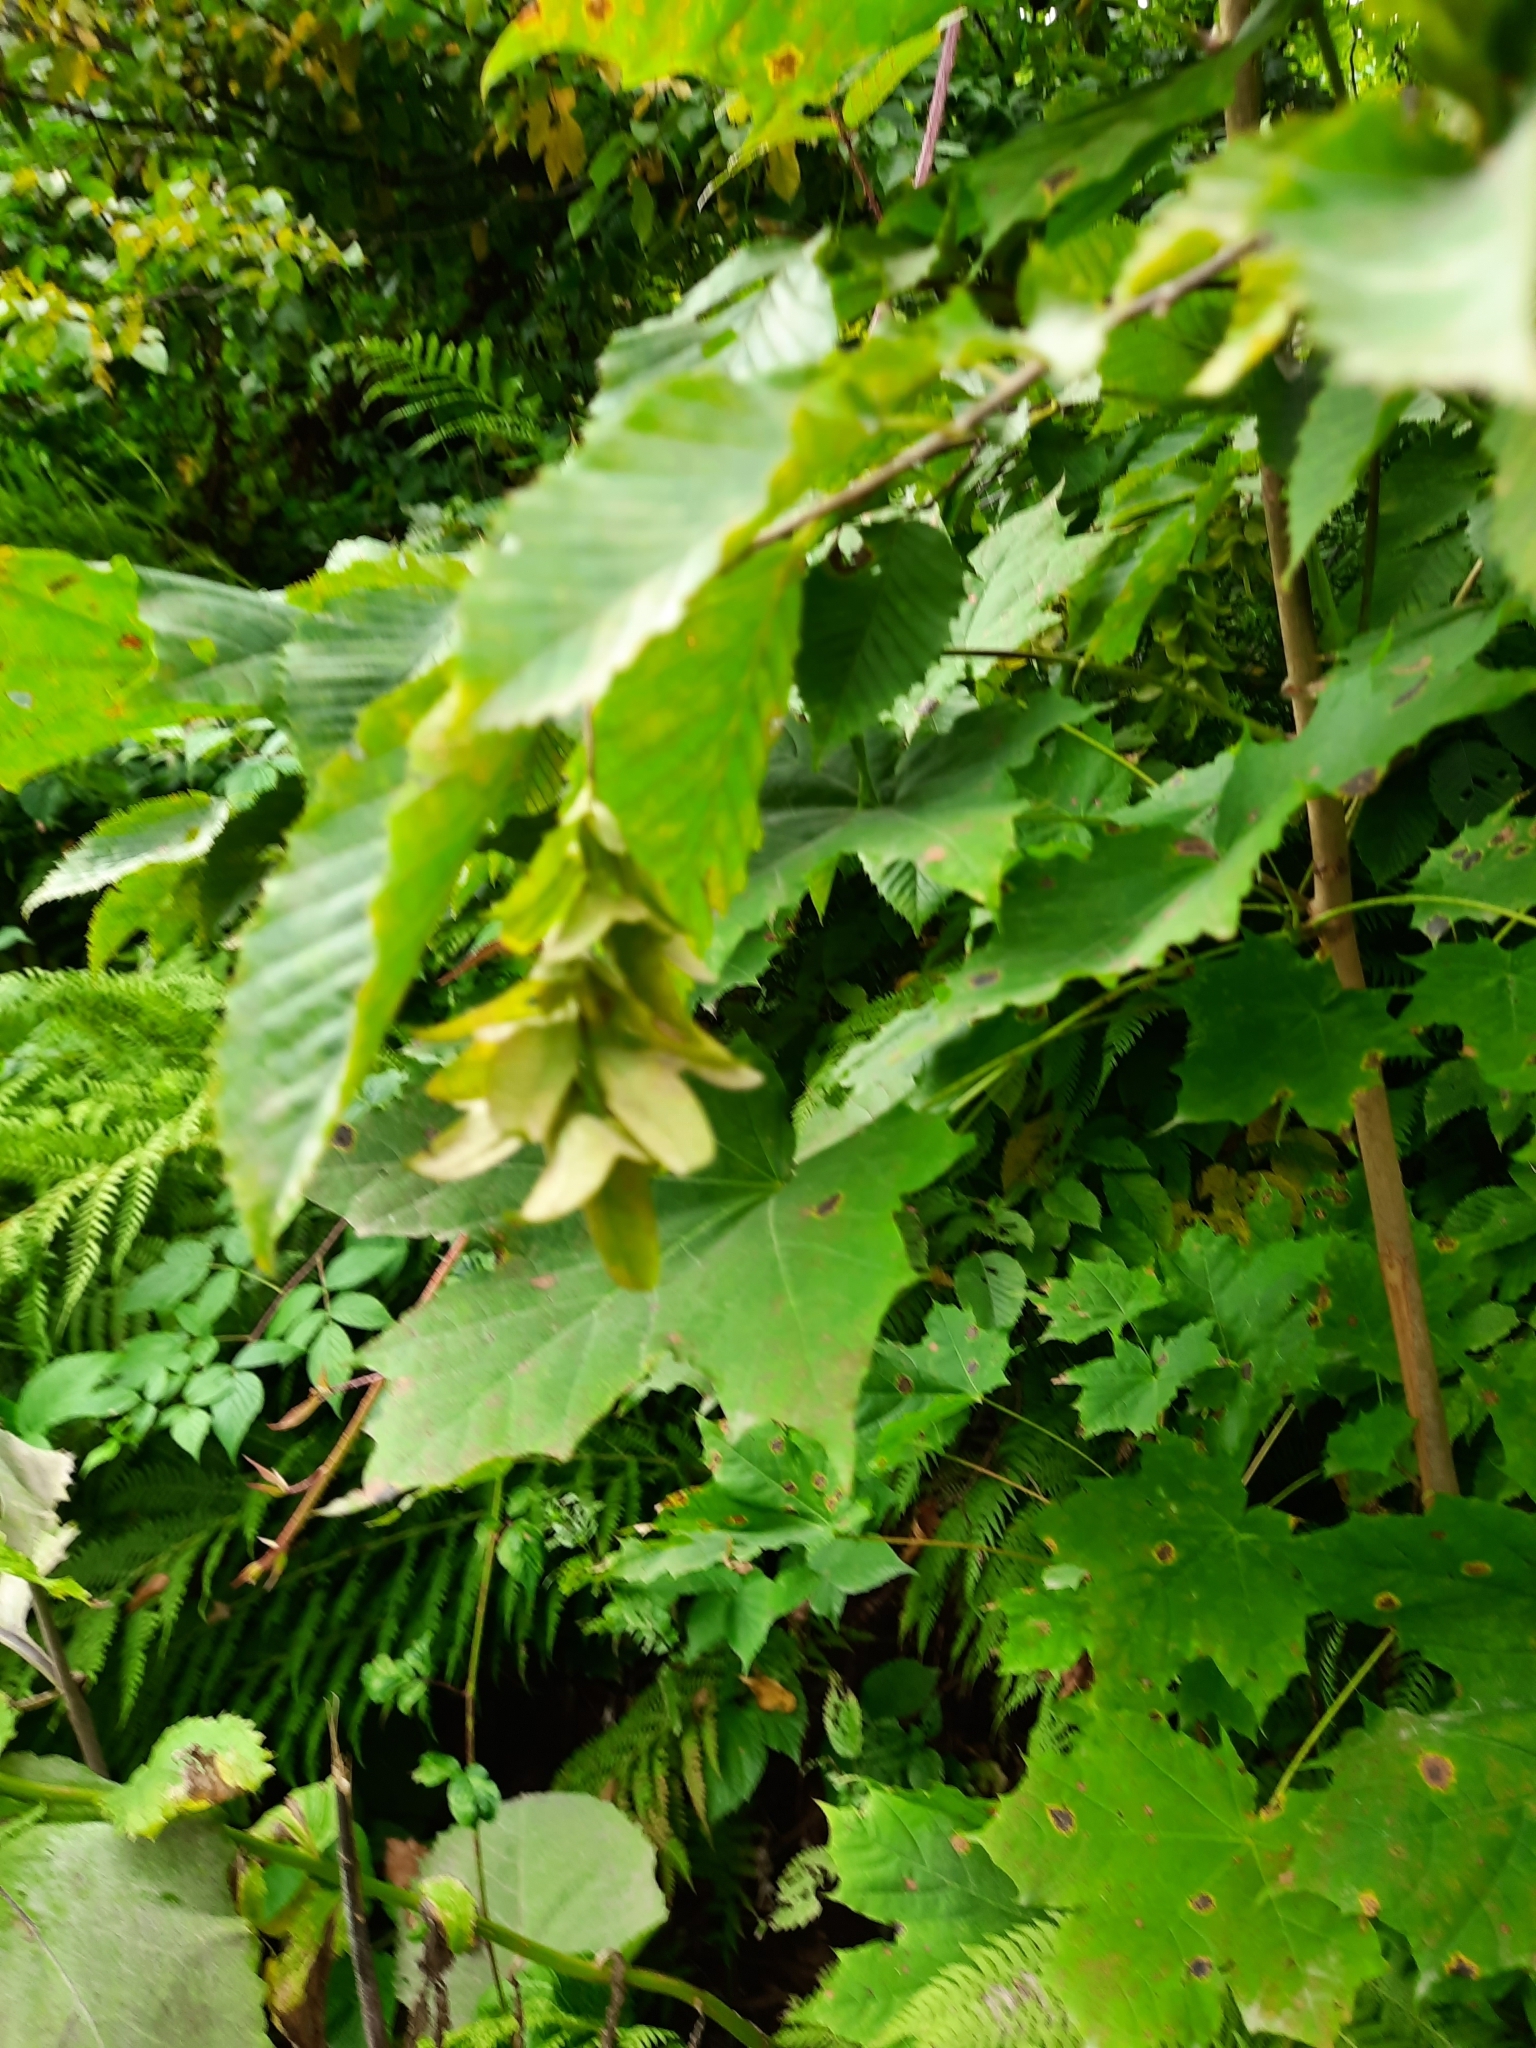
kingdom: Plantae
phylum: Tracheophyta
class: Magnoliopsida
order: Fagales
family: Betulaceae
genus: Carpinus
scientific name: Carpinus betulus
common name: Hornbeam
